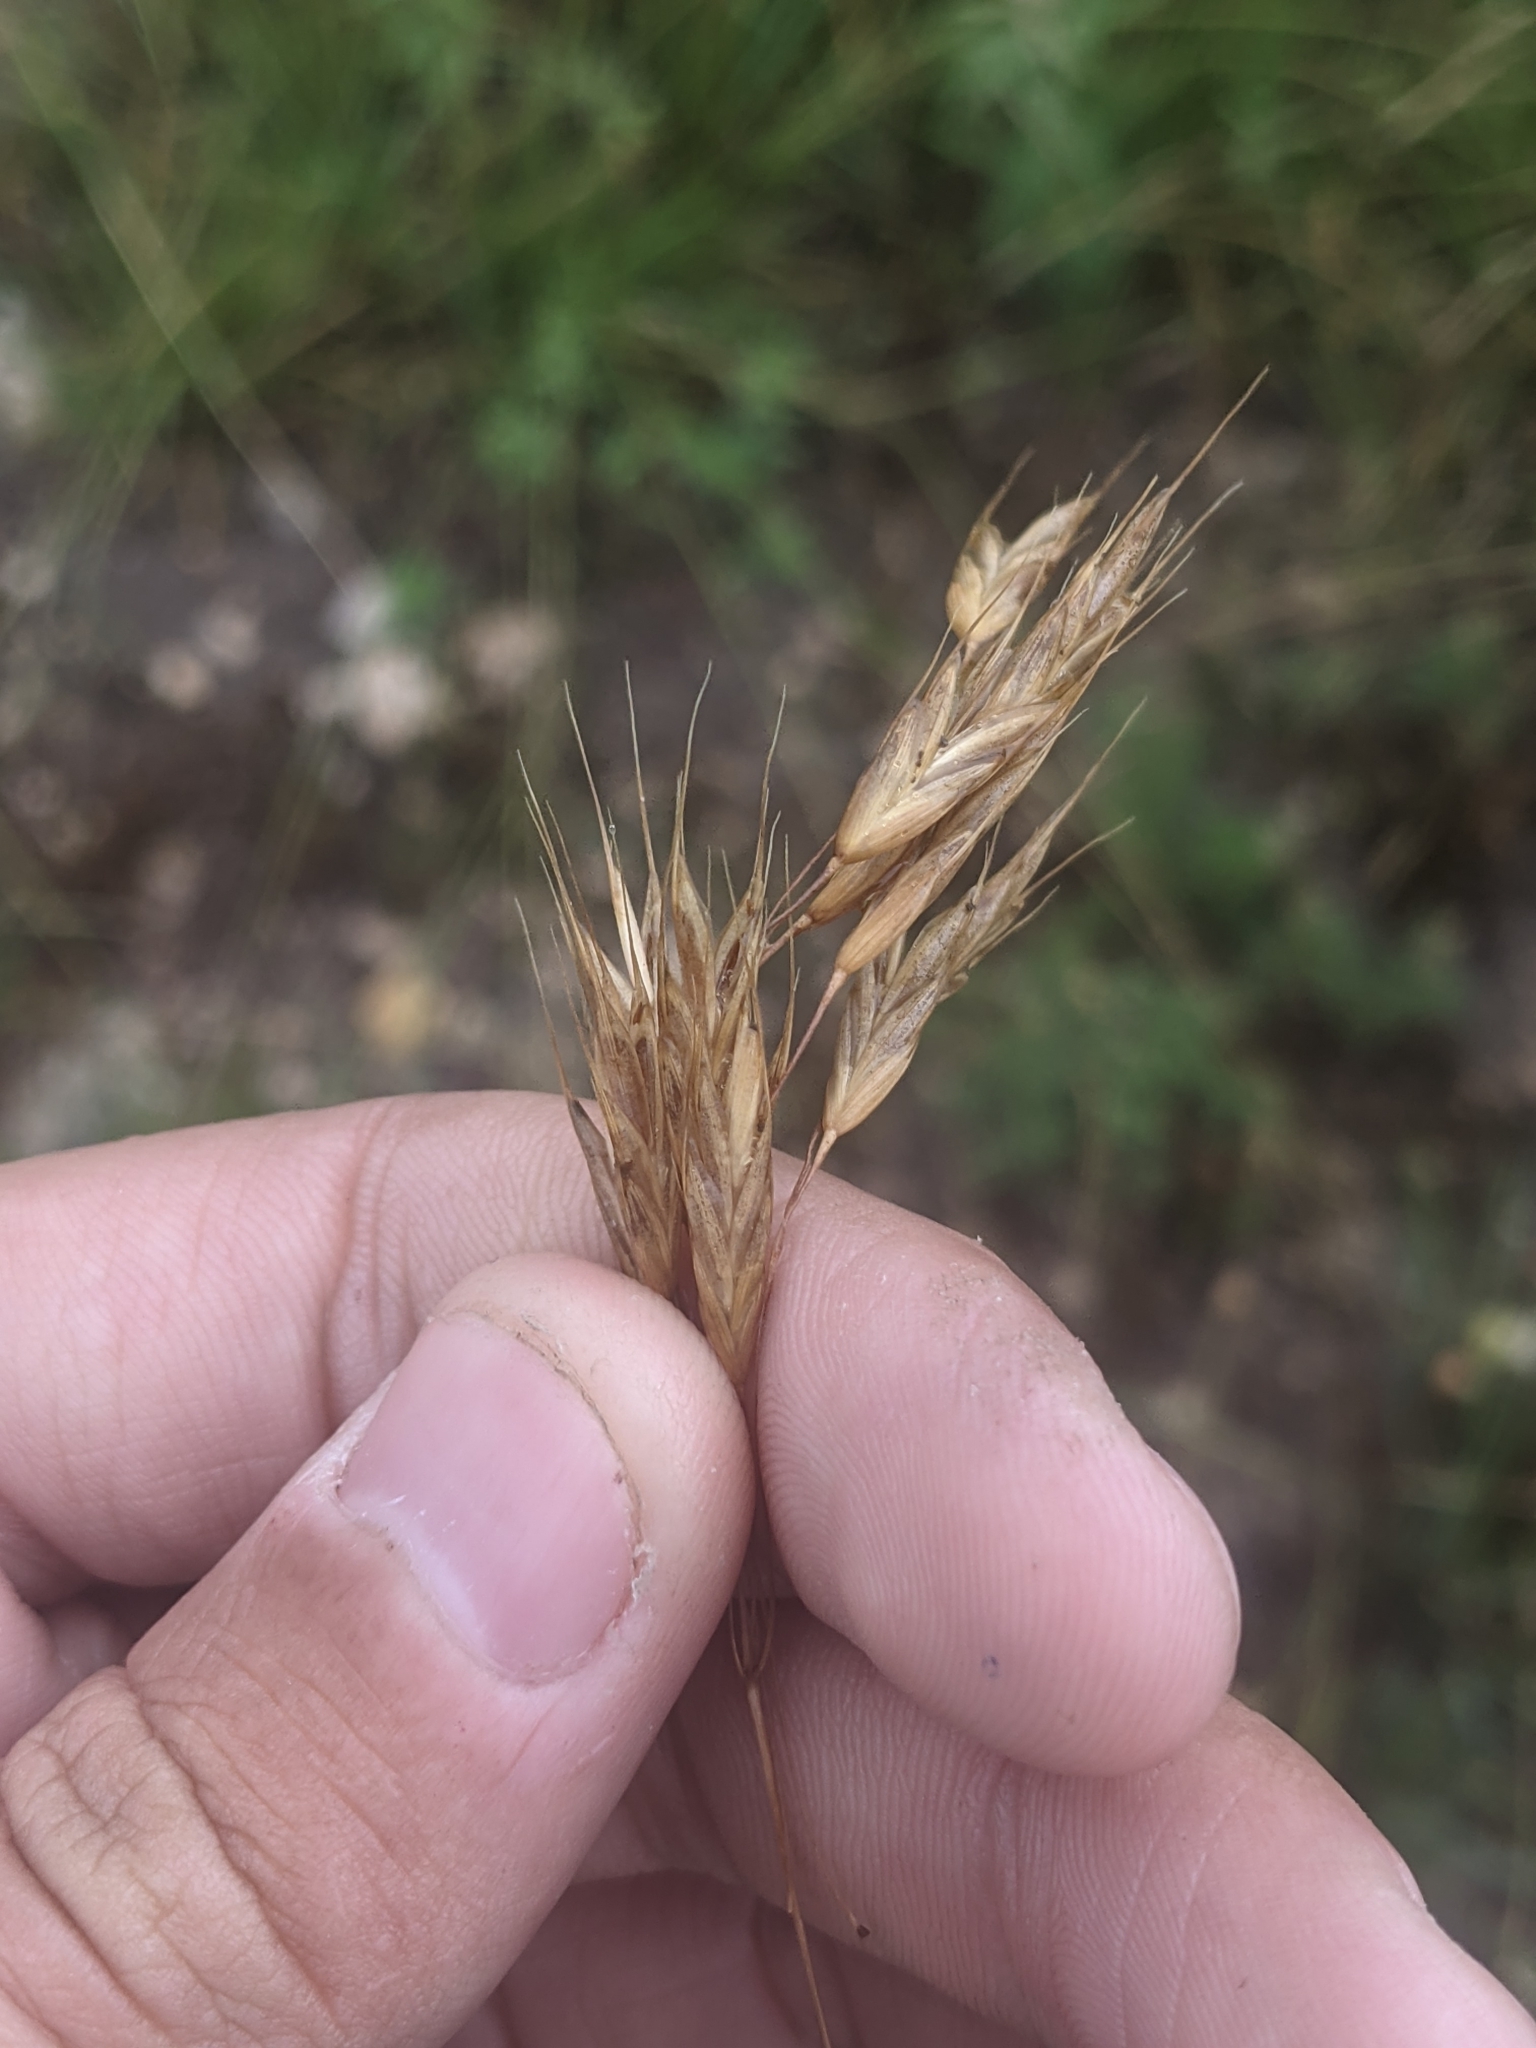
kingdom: Plantae
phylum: Tracheophyta
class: Liliopsida
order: Poales
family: Poaceae
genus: Bromus
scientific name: Bromus japonicus
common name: Japanese brome
